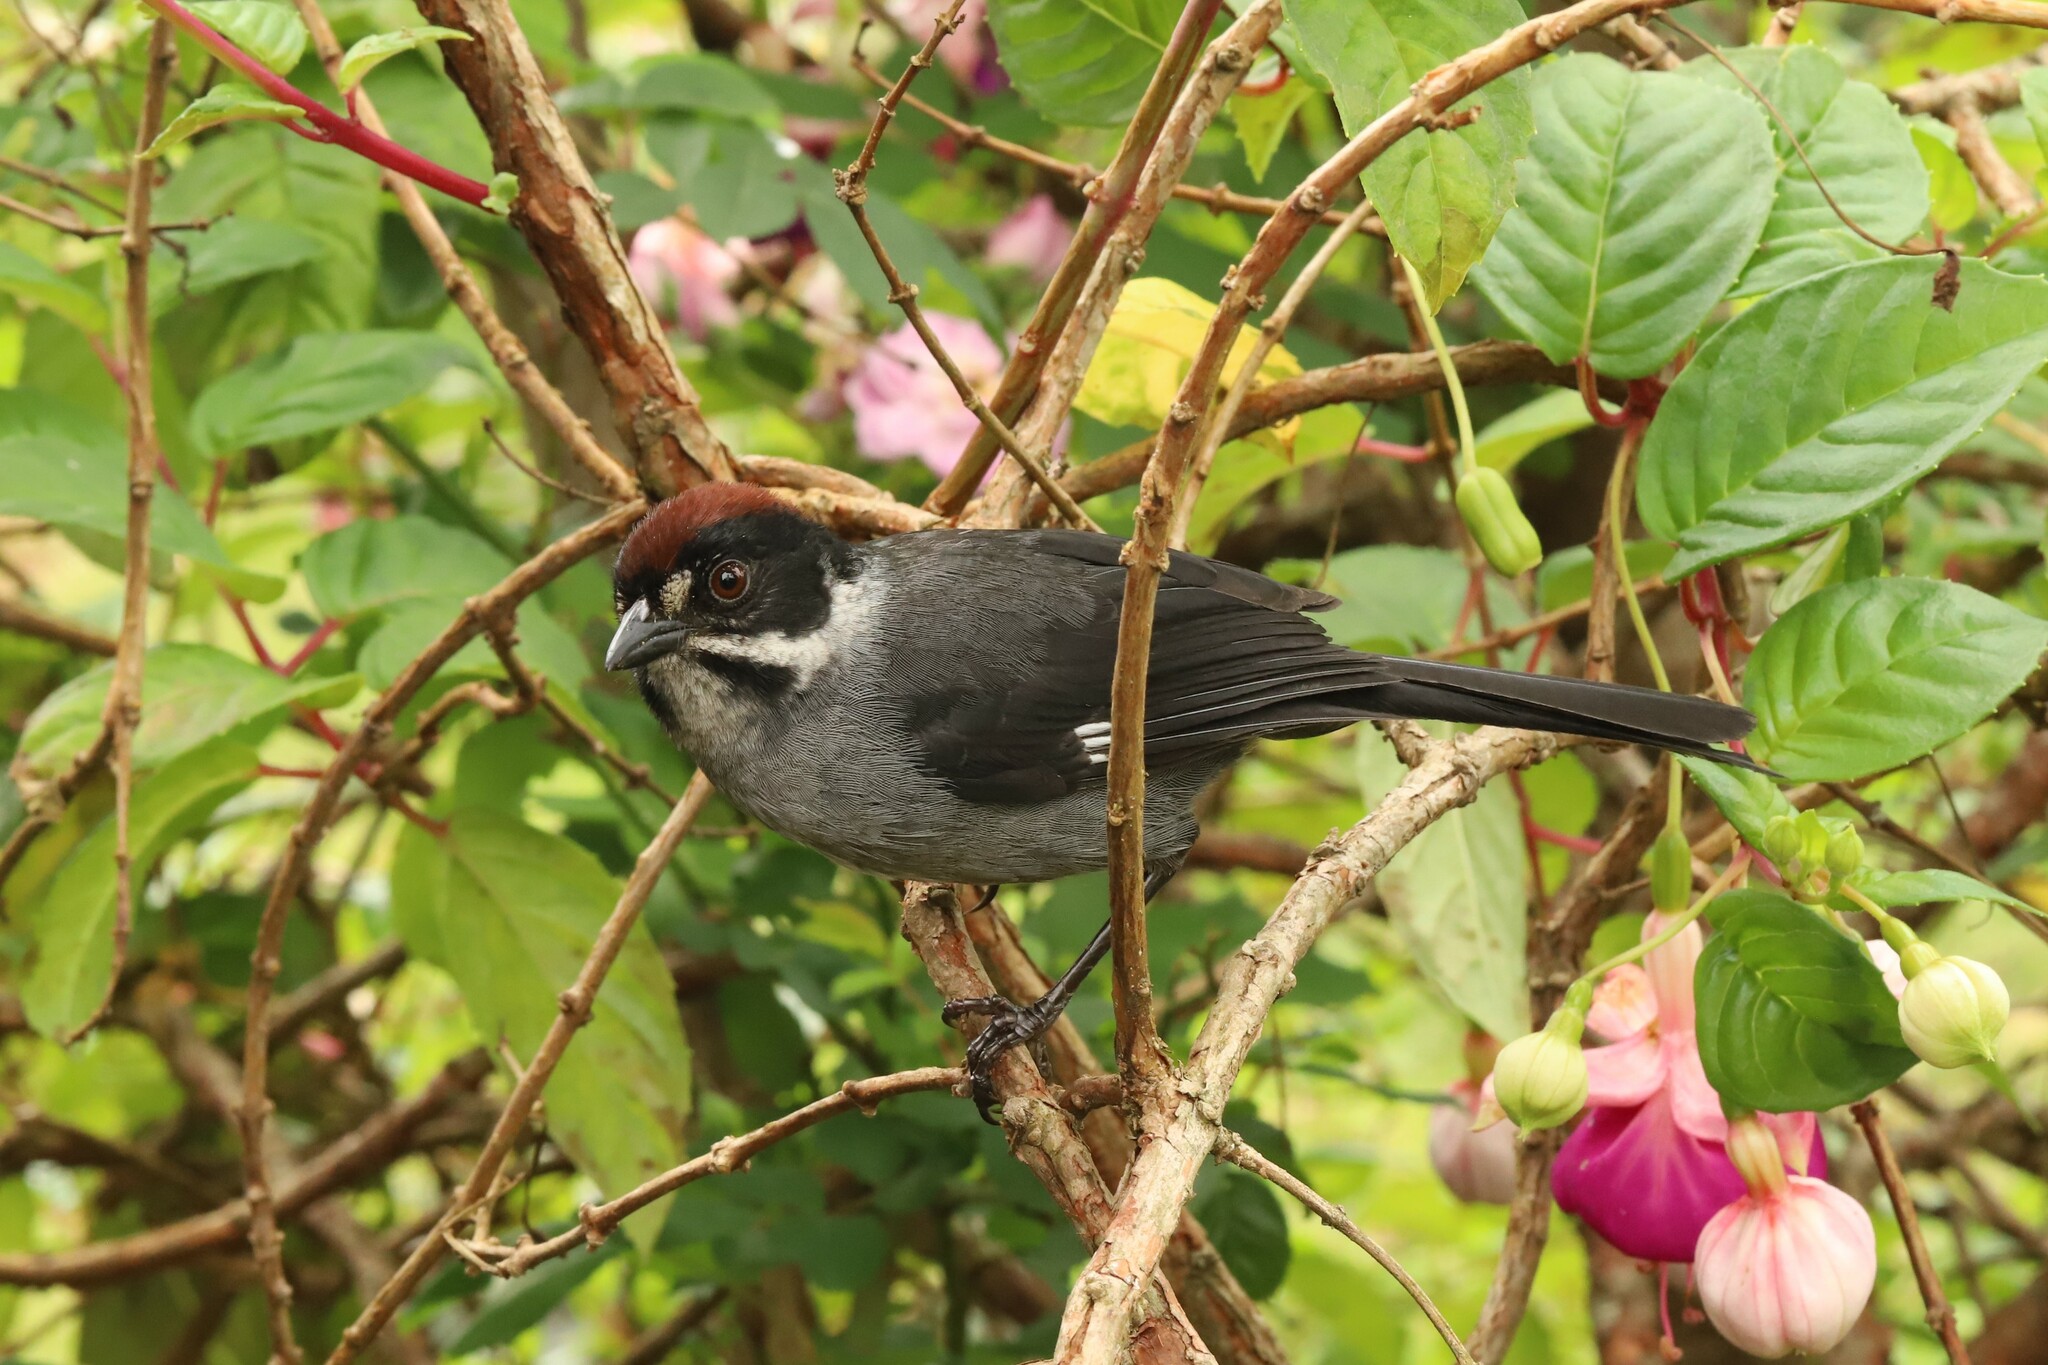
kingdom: Animalia
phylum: Chordata
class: Aves
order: Passeriformes
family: Passerellidae
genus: Atlapetes
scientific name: Atlapetes schistaceus
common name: Slaty brushfinch
